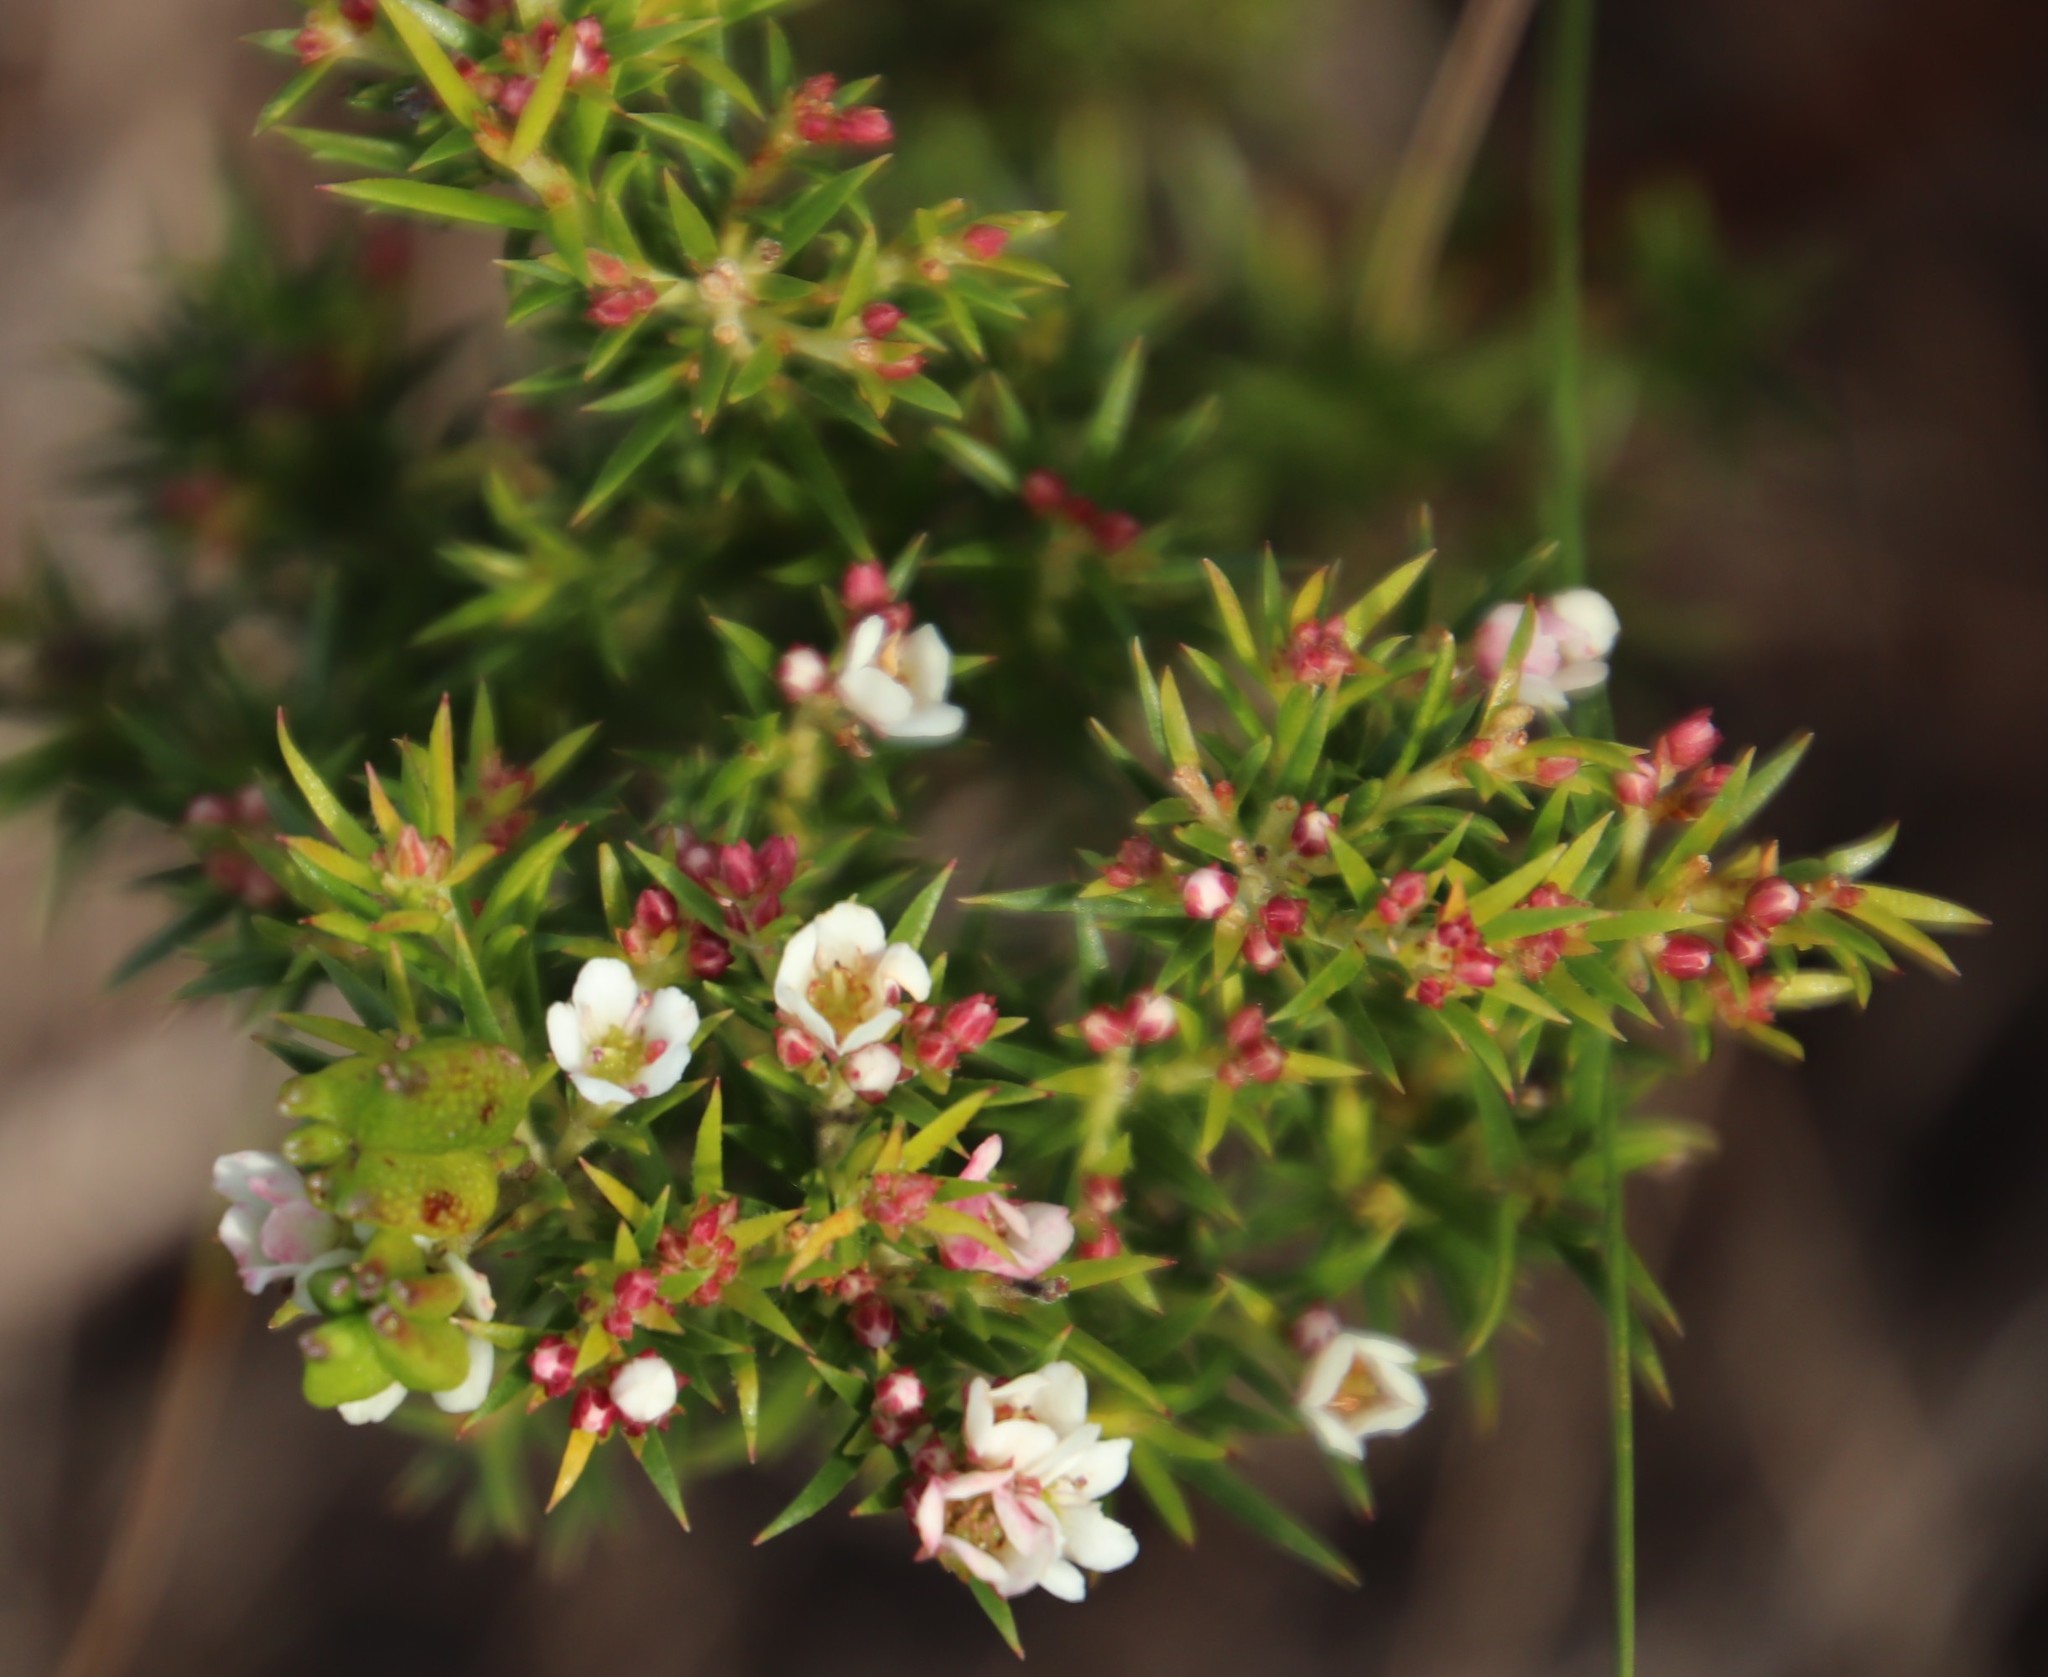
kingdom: Plantae
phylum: Tracheophyta
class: Magnoliopsida
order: Sapindales
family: Rutaceae
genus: Diosma
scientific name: Diosma hirsuta
